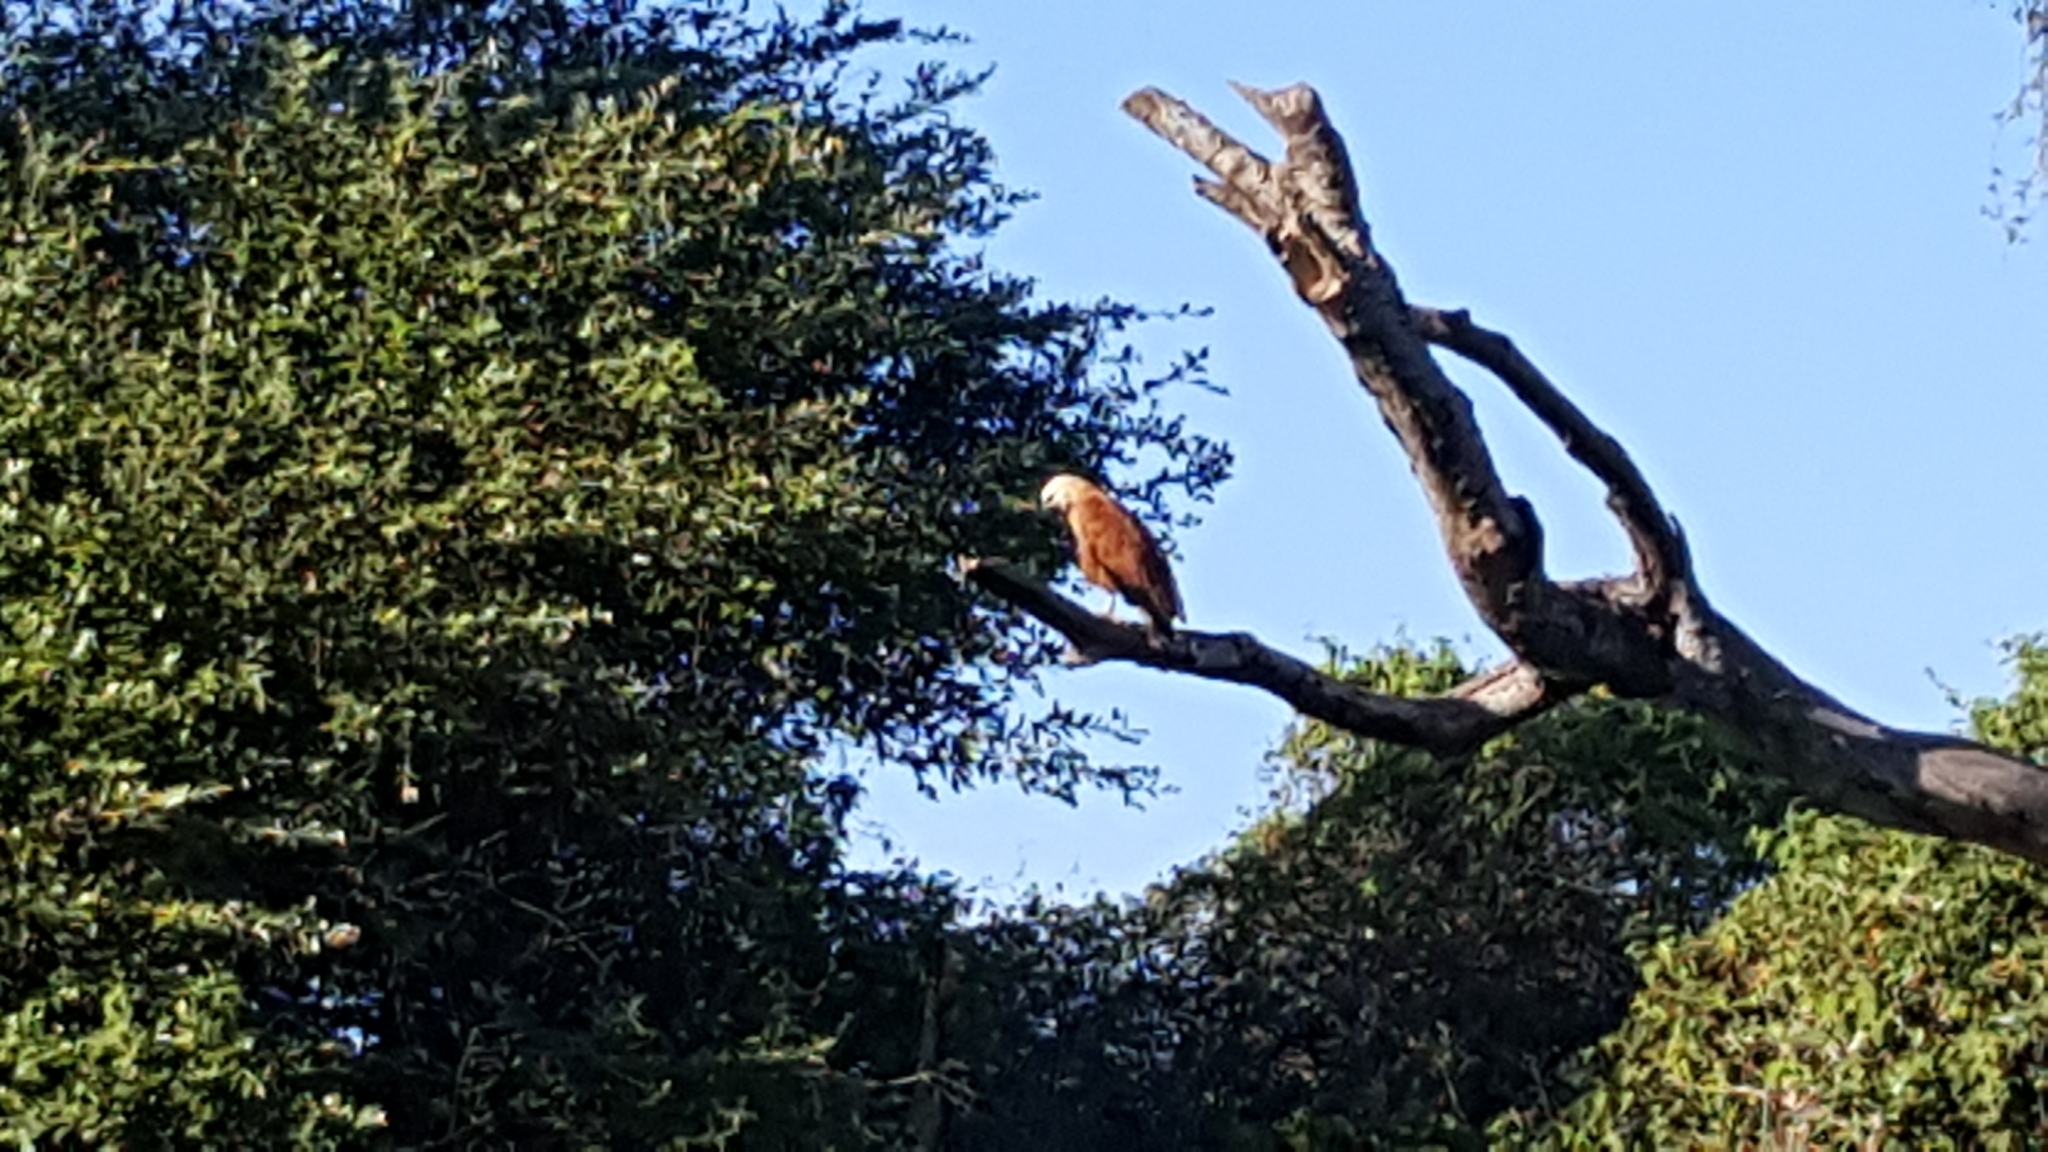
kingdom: Animalia
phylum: Chordata
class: Aves
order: Accipitriformes
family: Accipitridae
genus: Busarellus
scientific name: Busarellus nigricollis
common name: Black-collared hawk
